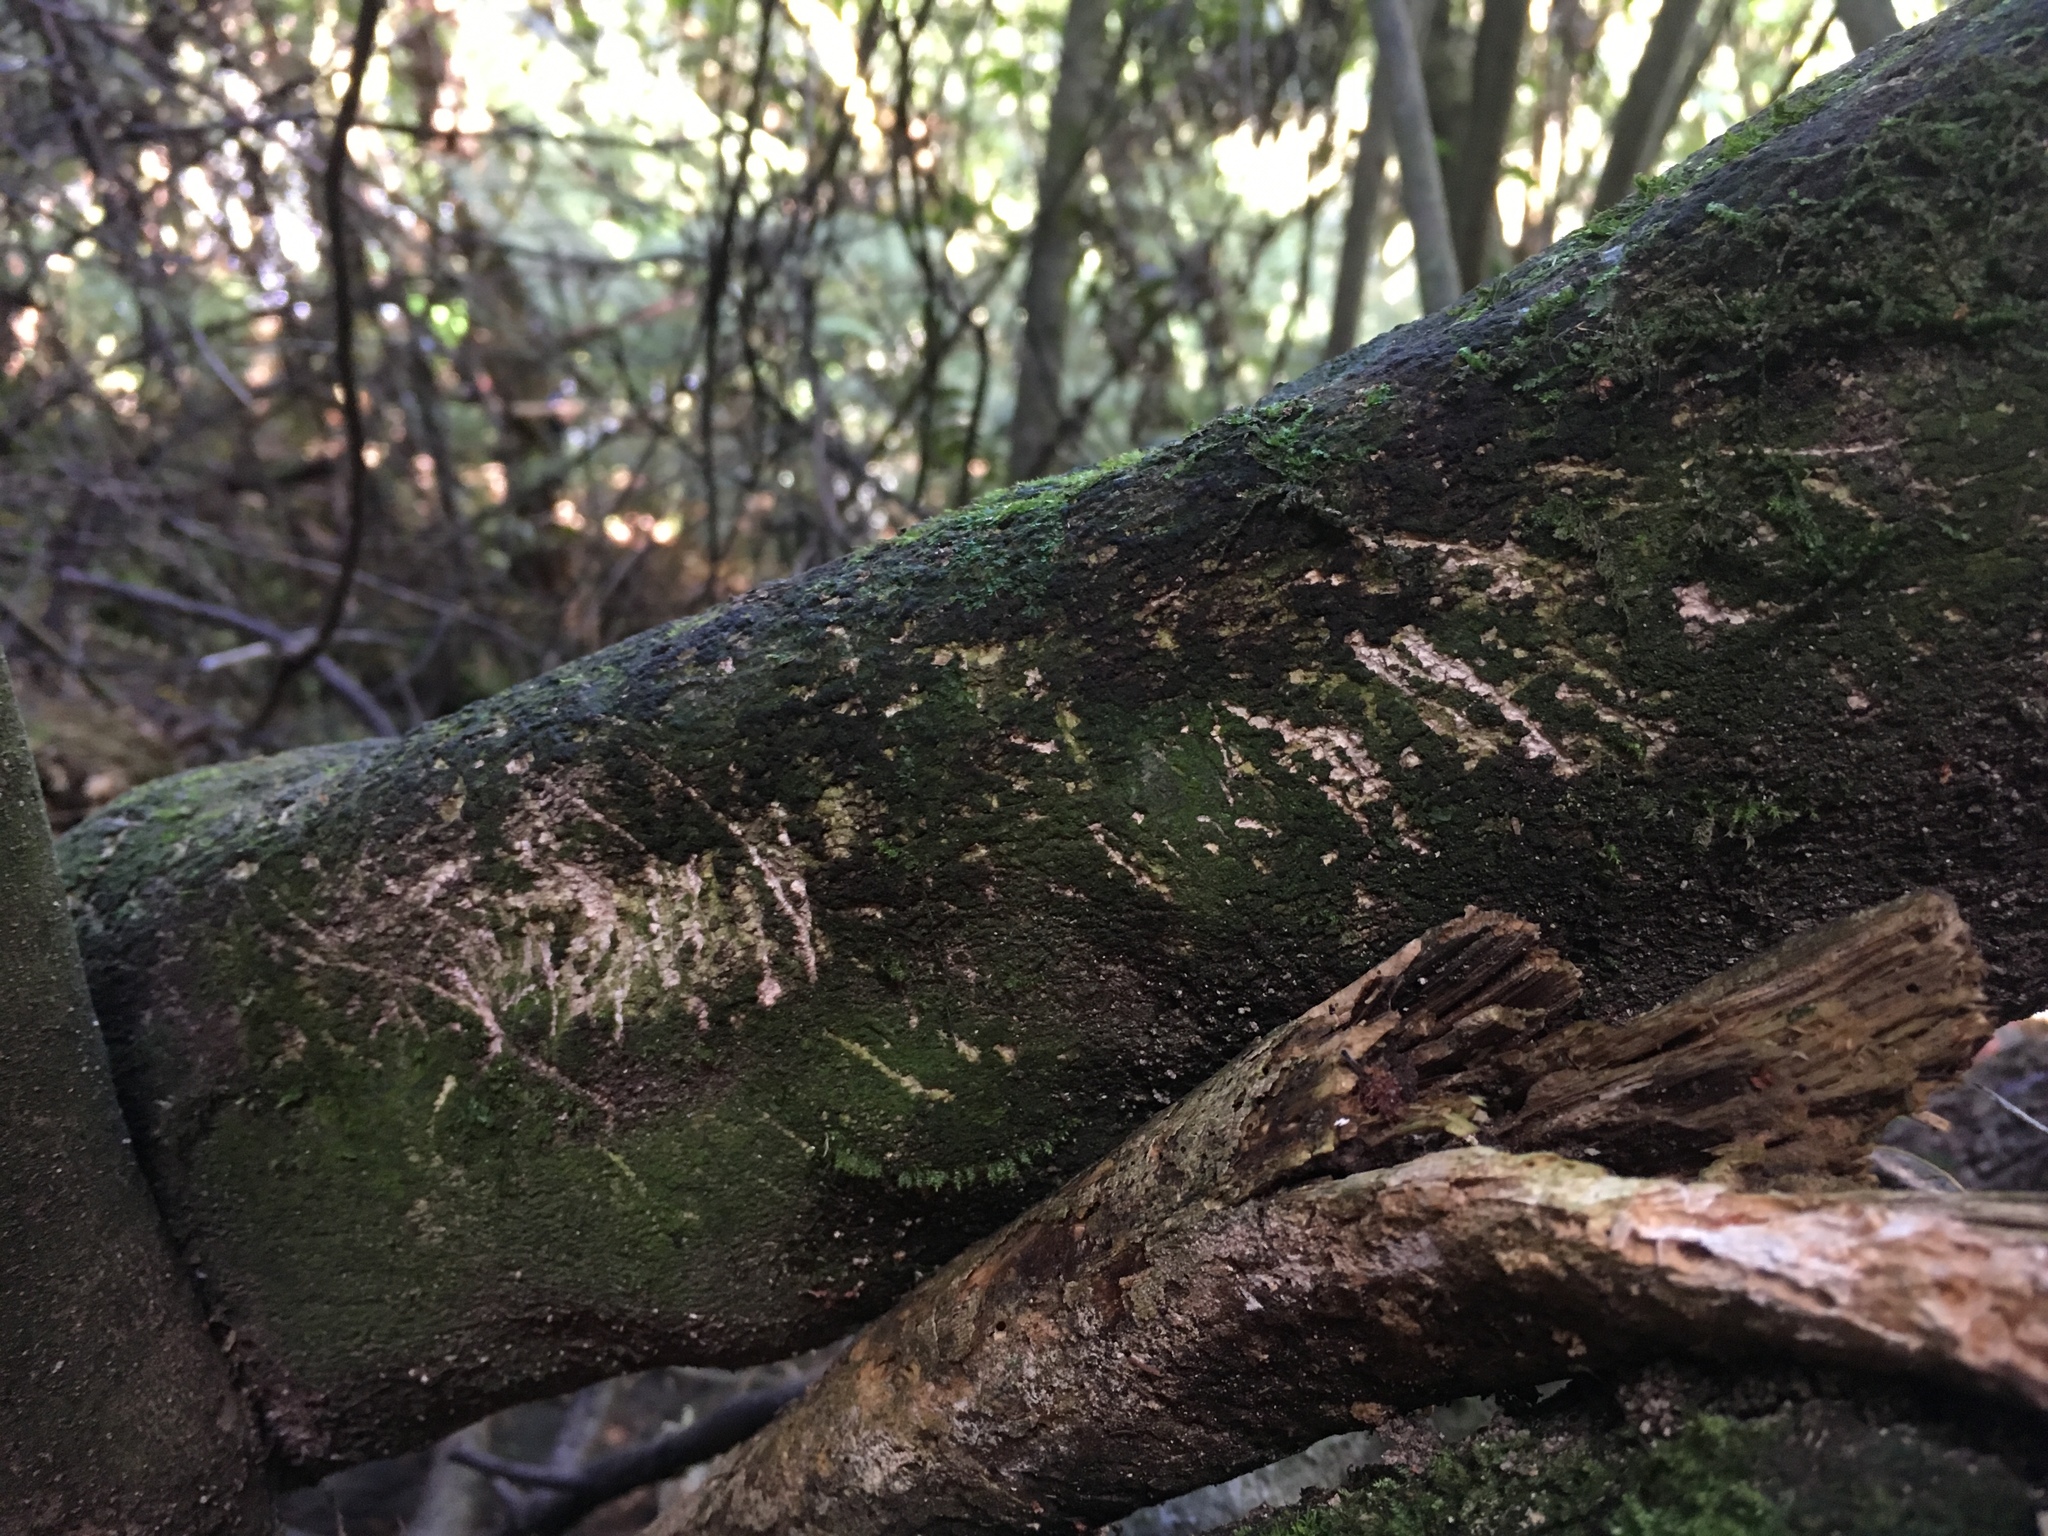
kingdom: Animalia
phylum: Chordata
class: Mammalia
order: Diprotodontia
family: Phalangeridae
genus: Trichosurus
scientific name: Trichosurus vulpecula
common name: Common brushtail
